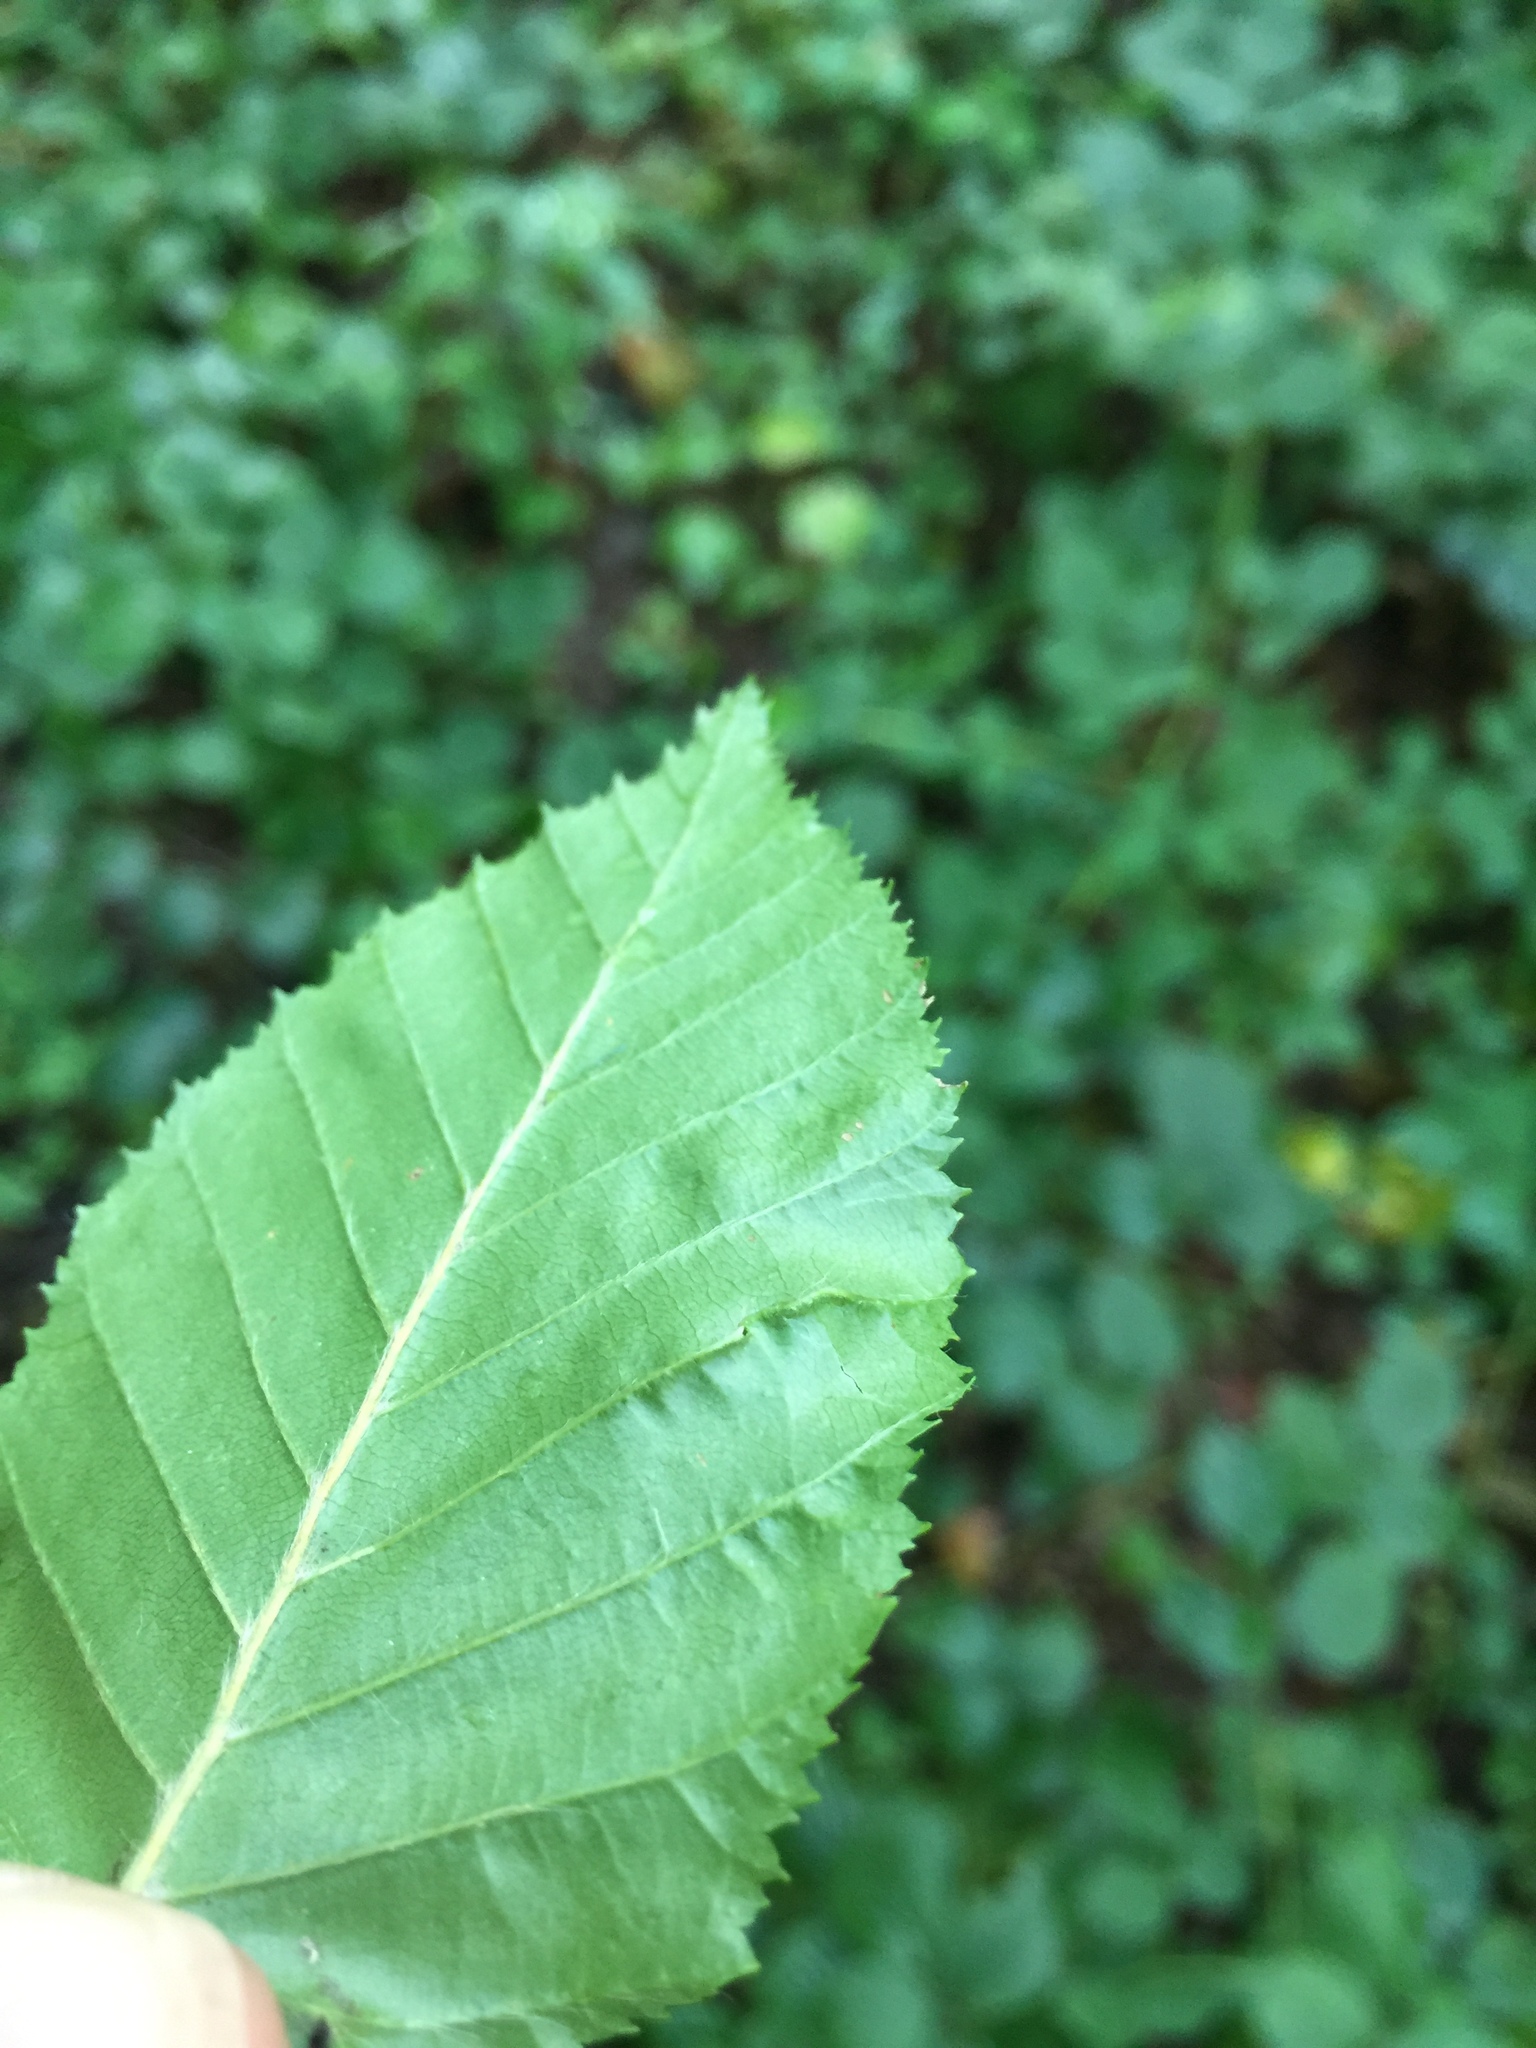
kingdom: Animalia
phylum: Arthropoda
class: Arachnida
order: Trombidiformes
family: Eriophyidae
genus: Aculops
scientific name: Aculops macrotrichus
